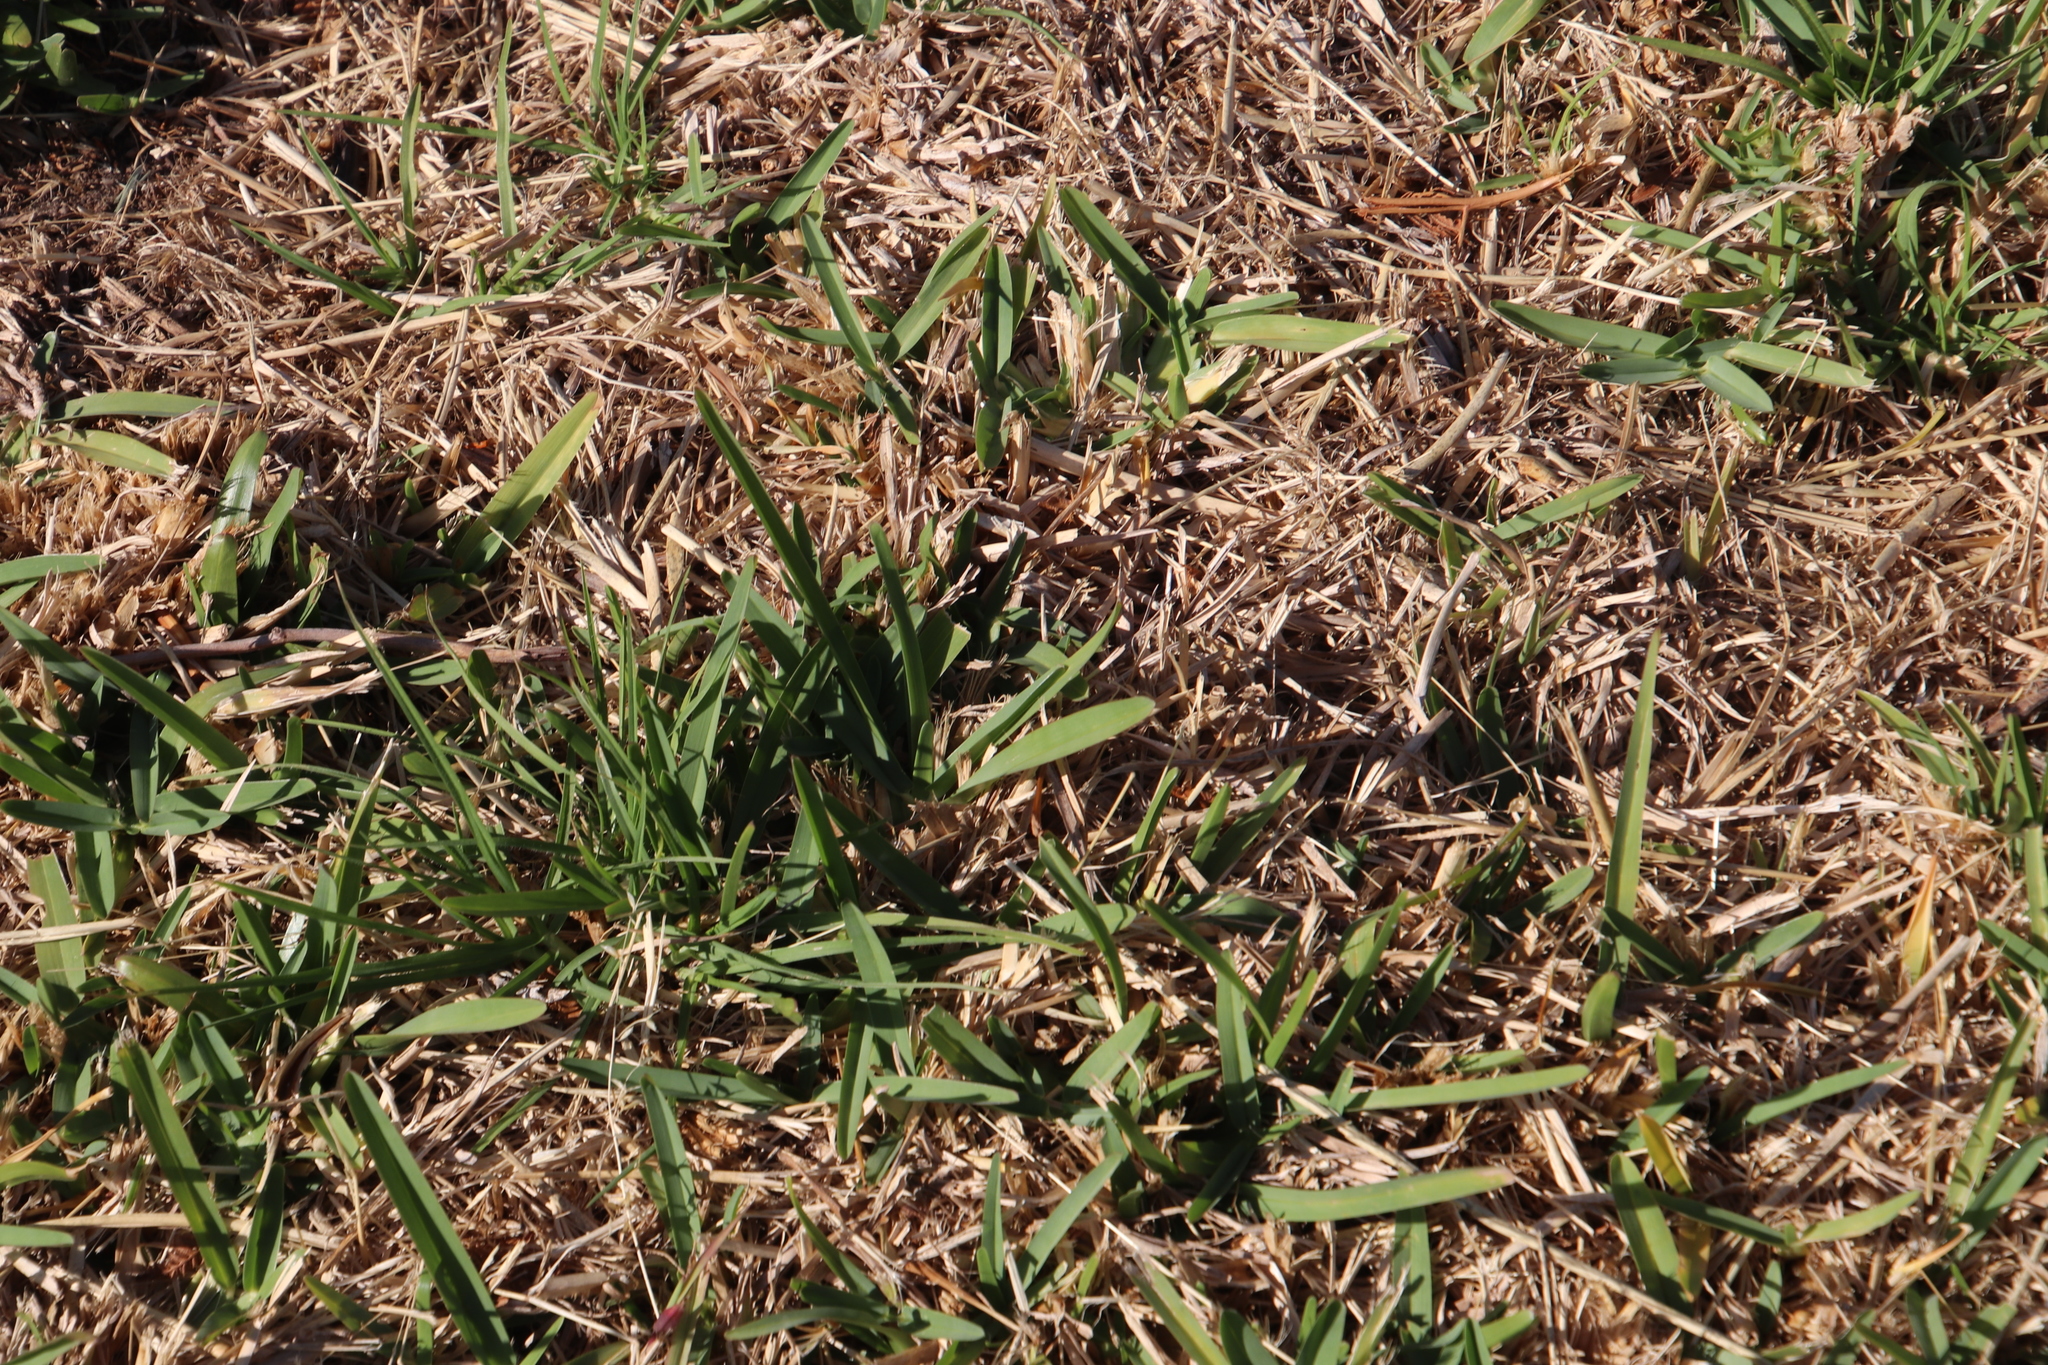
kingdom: Plantae
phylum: Tracheophyta
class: Liliopsida
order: Poales
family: Poaceae
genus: Stenotaphrum
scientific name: Stenotaphrum secundatum
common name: St. augustine grass
